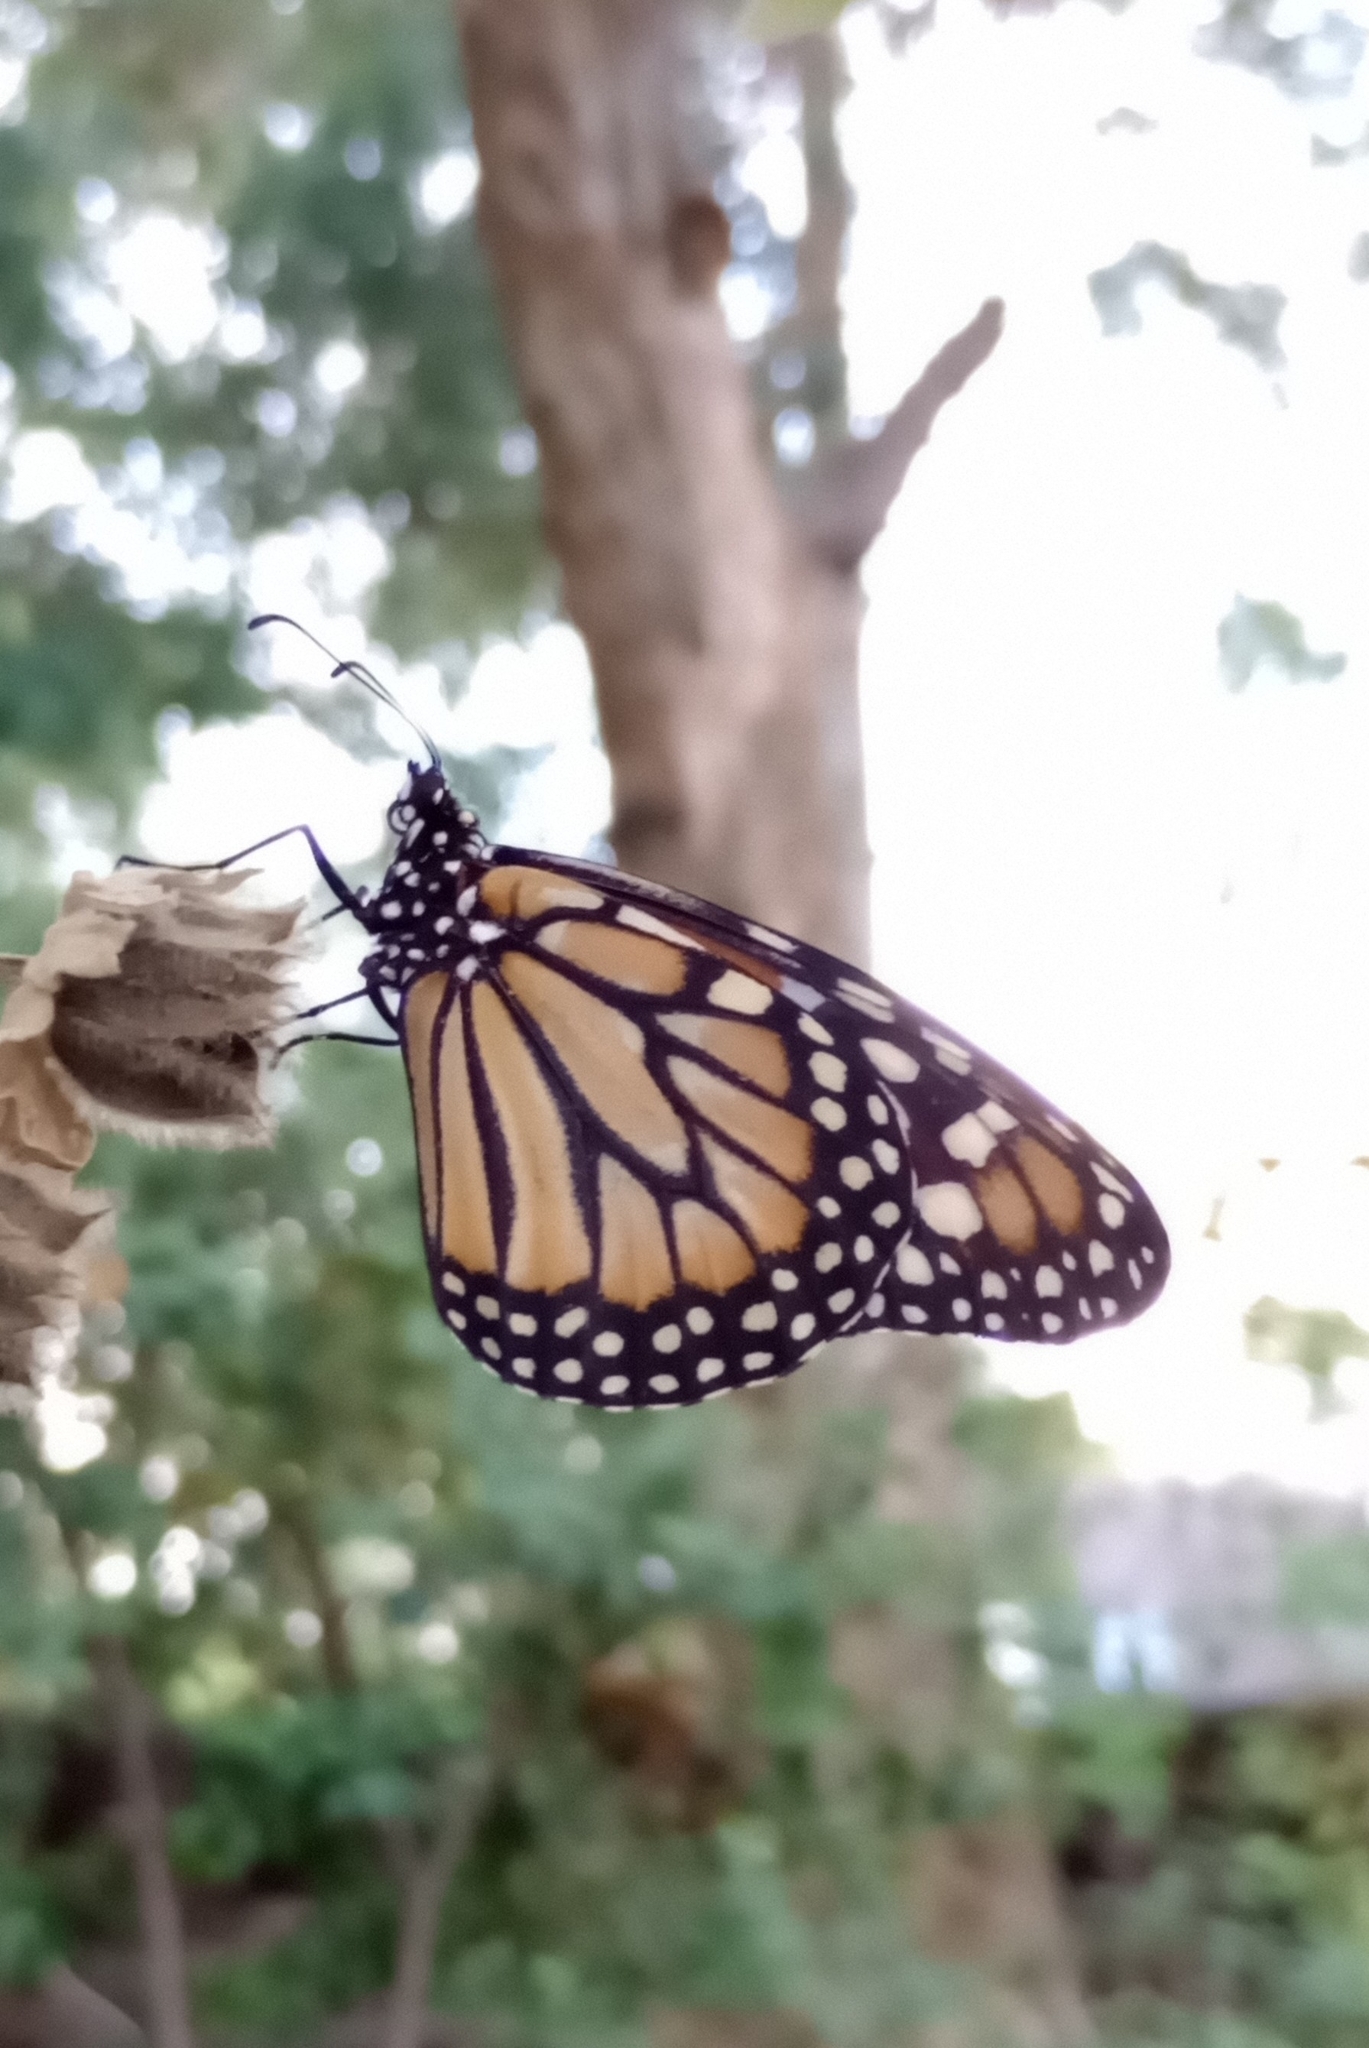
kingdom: Animalia
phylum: Arthropoda
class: Insecta
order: Lepidoptera
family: Nymphalidae
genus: Danaus
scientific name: Danaus erippus
